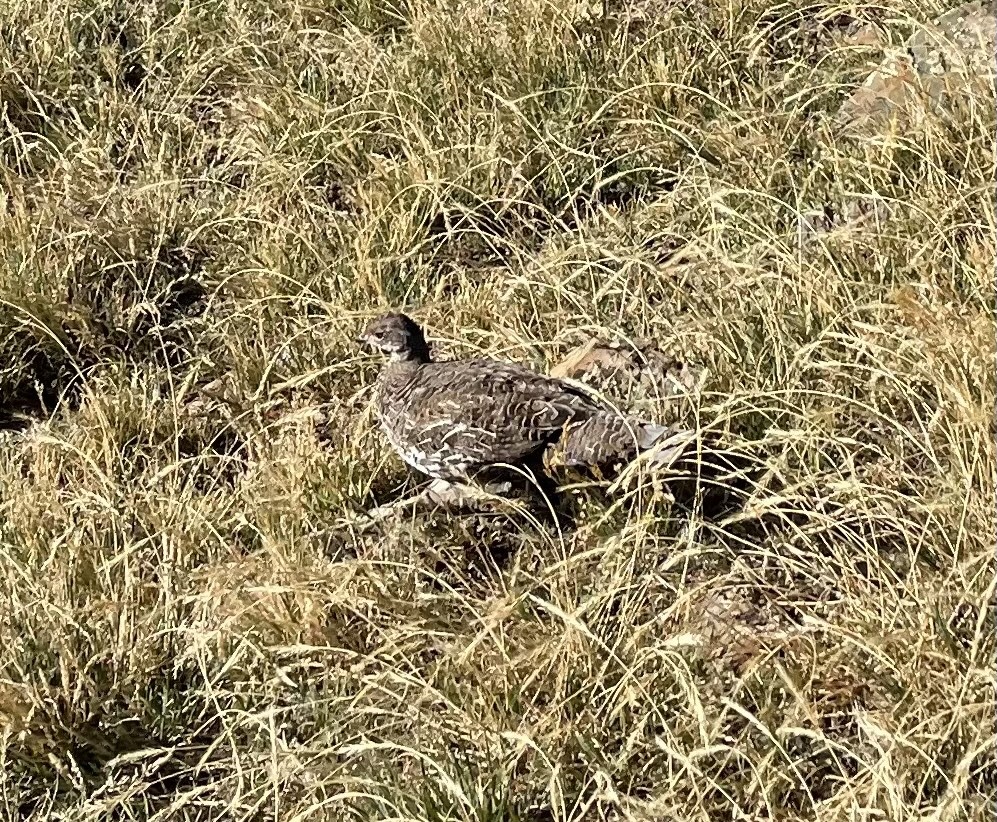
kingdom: Animalia
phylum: Chordata
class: Aves
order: Galliformes
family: Phasianidae
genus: Dendragapus
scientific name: Dendragapus obscurus
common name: Dusky grouse
